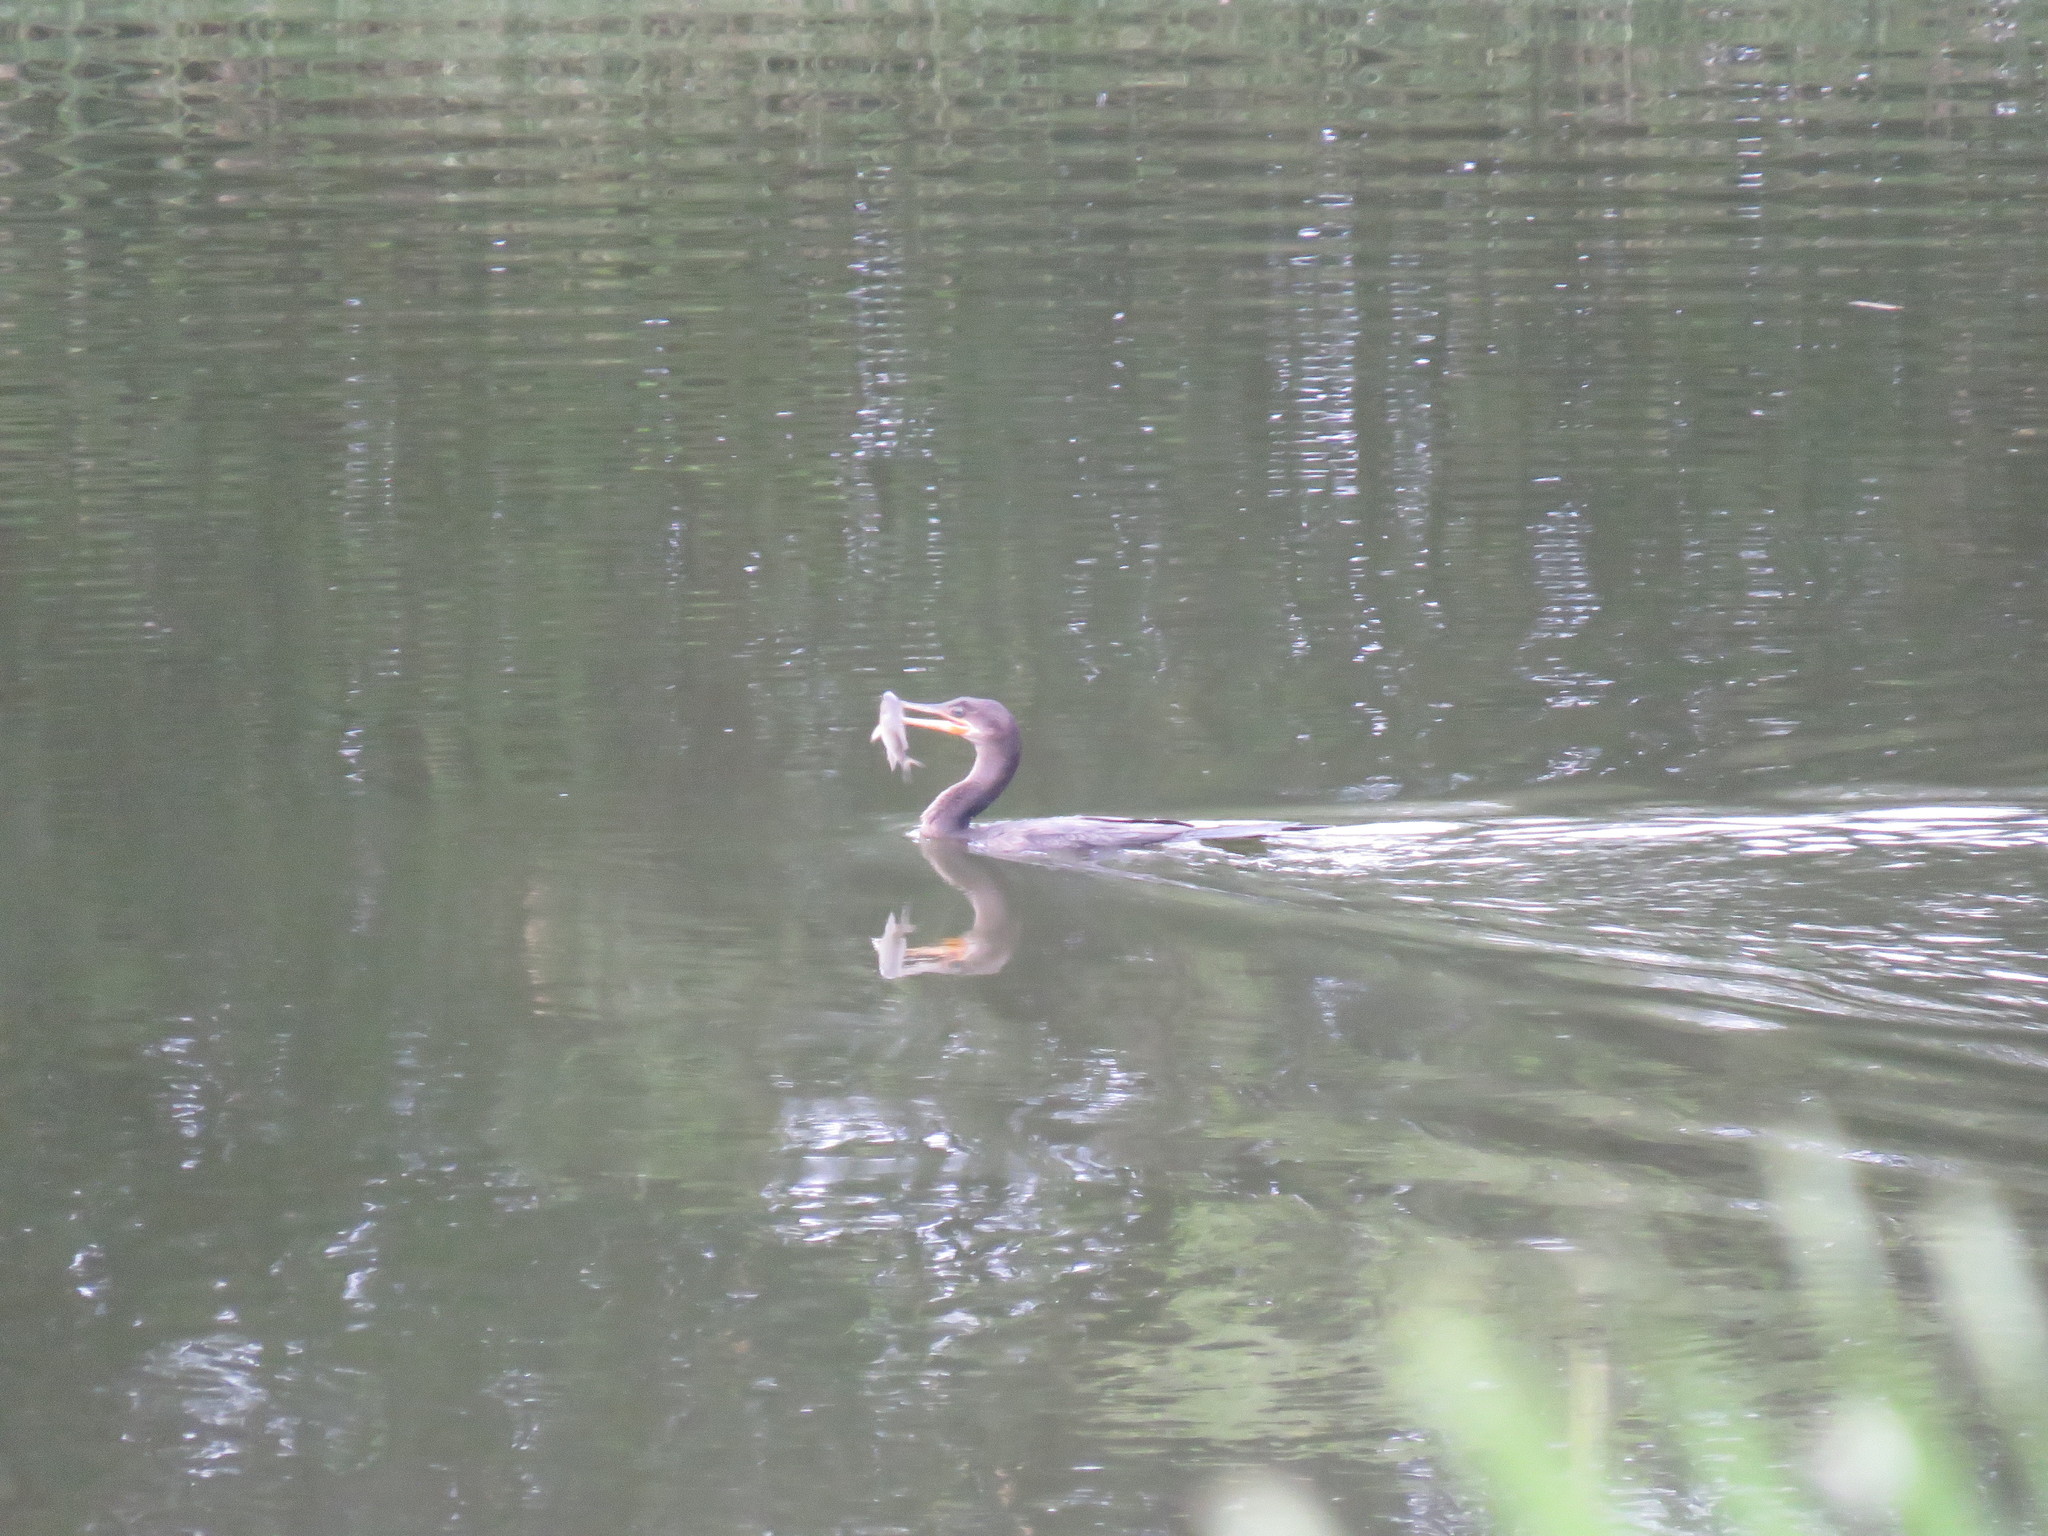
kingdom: Animalia
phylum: Chordata
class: Aves
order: Suliformes
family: Phalacrocoracidae
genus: Phalacrocorax
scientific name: Phalacrocorax brasilianus
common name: Neotropic cormorant
